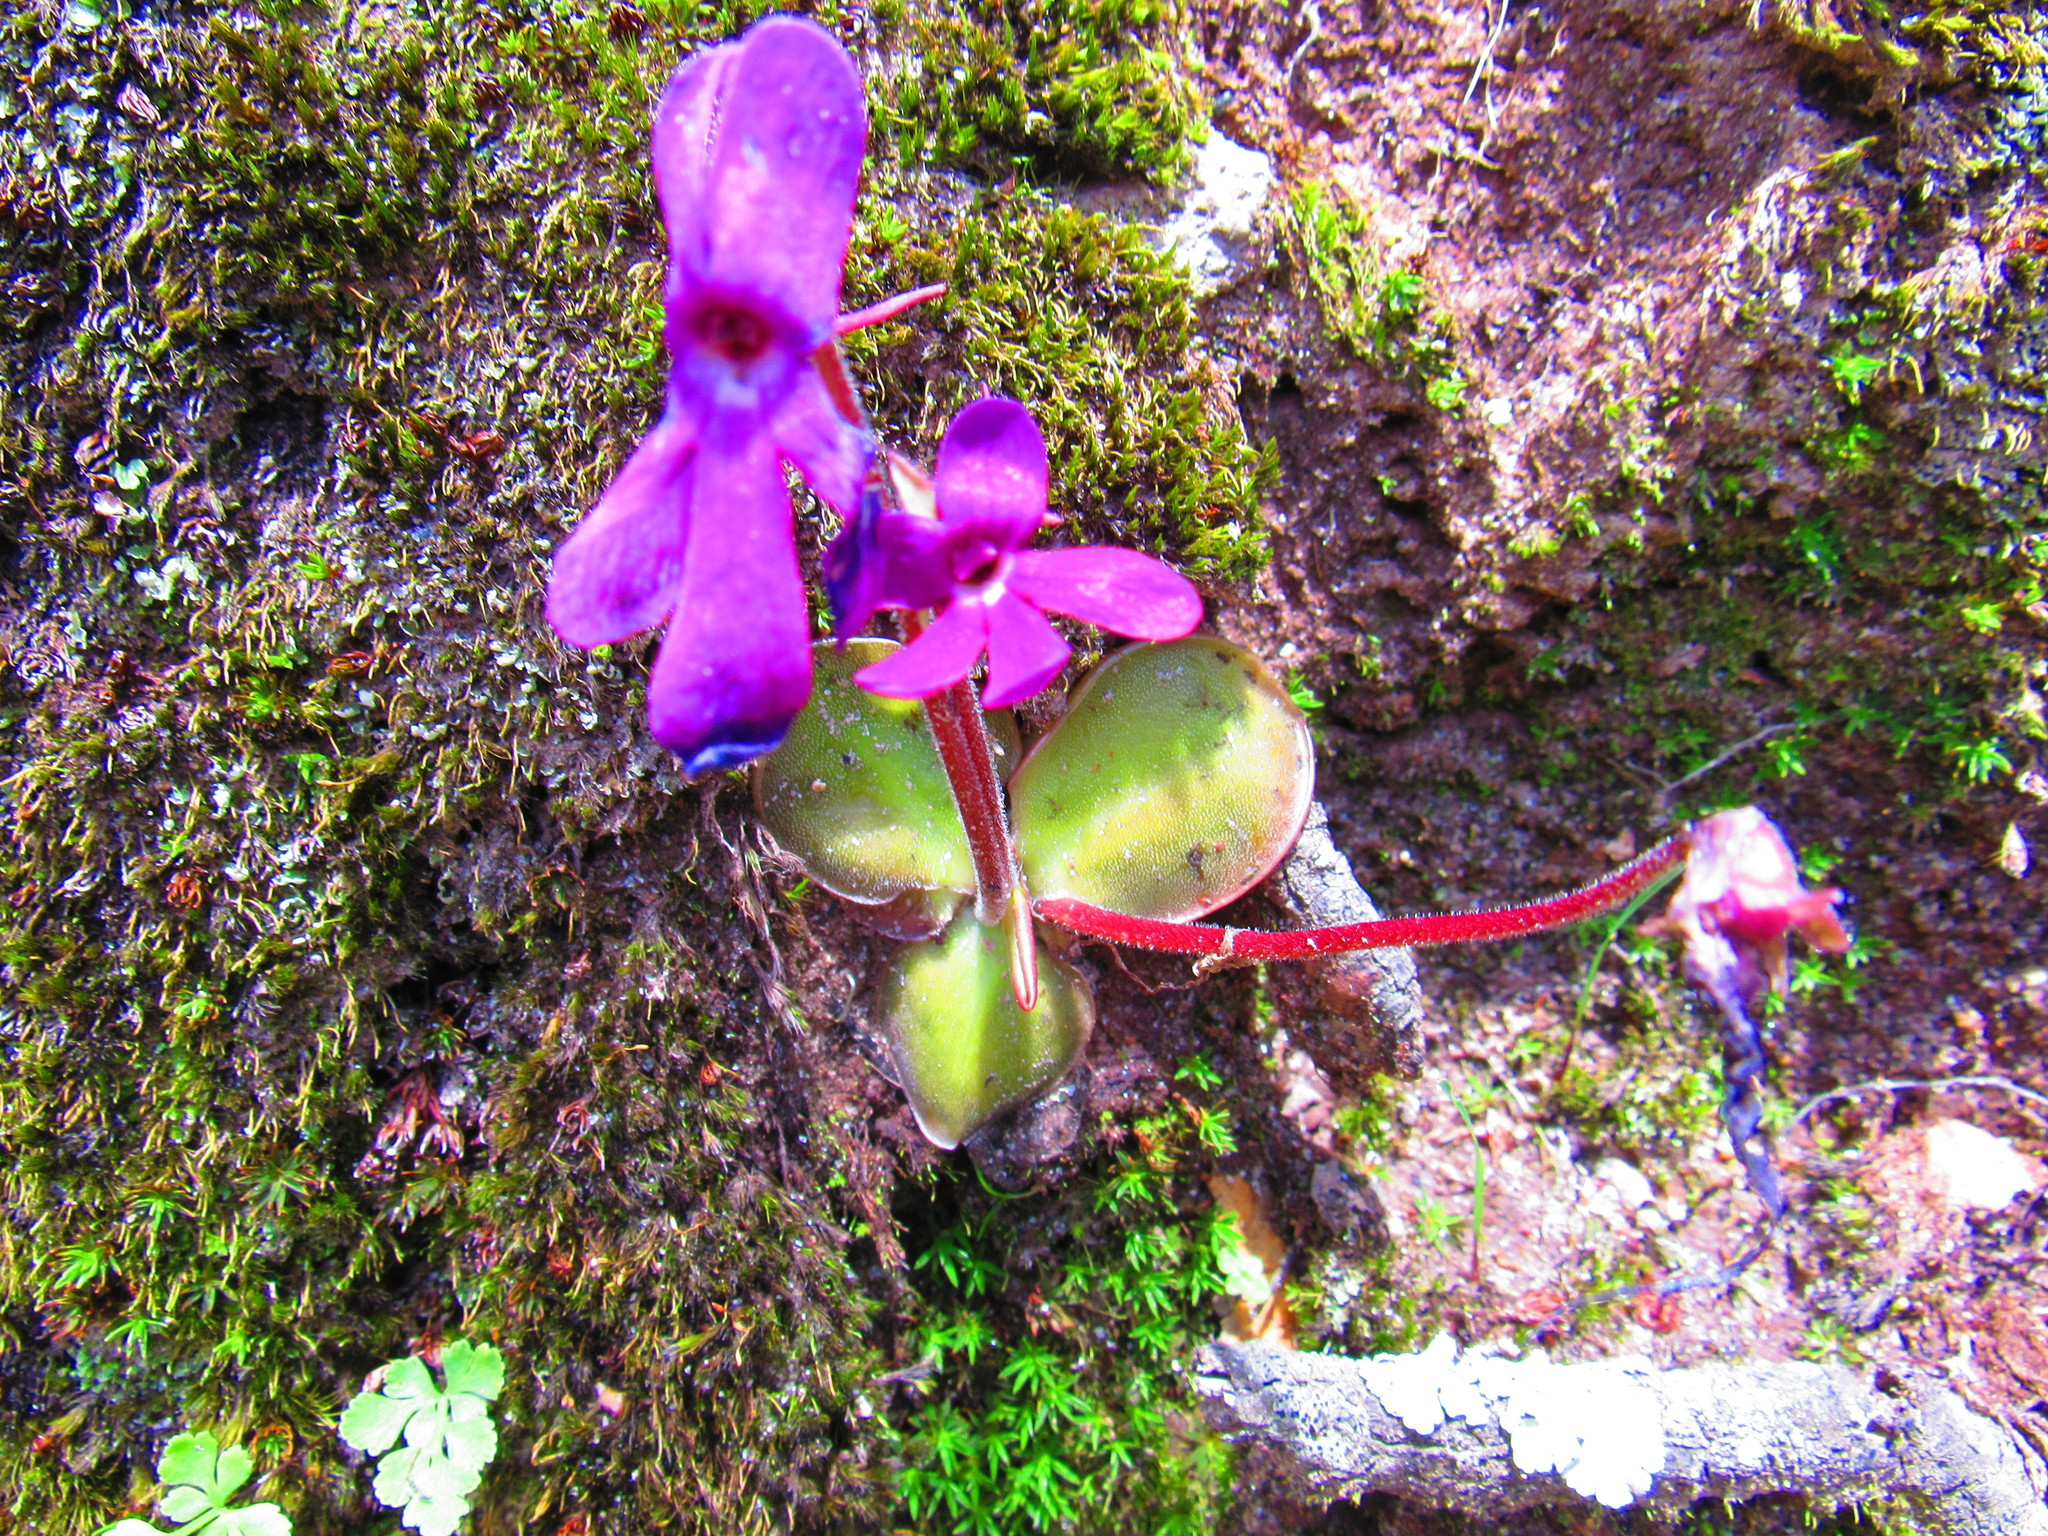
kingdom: Plantae
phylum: Tracheophyta
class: Magnoliopsida
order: Lamiales
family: Lentibulariaceae
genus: Pinguicula
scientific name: Pinguicula oblongiloba
